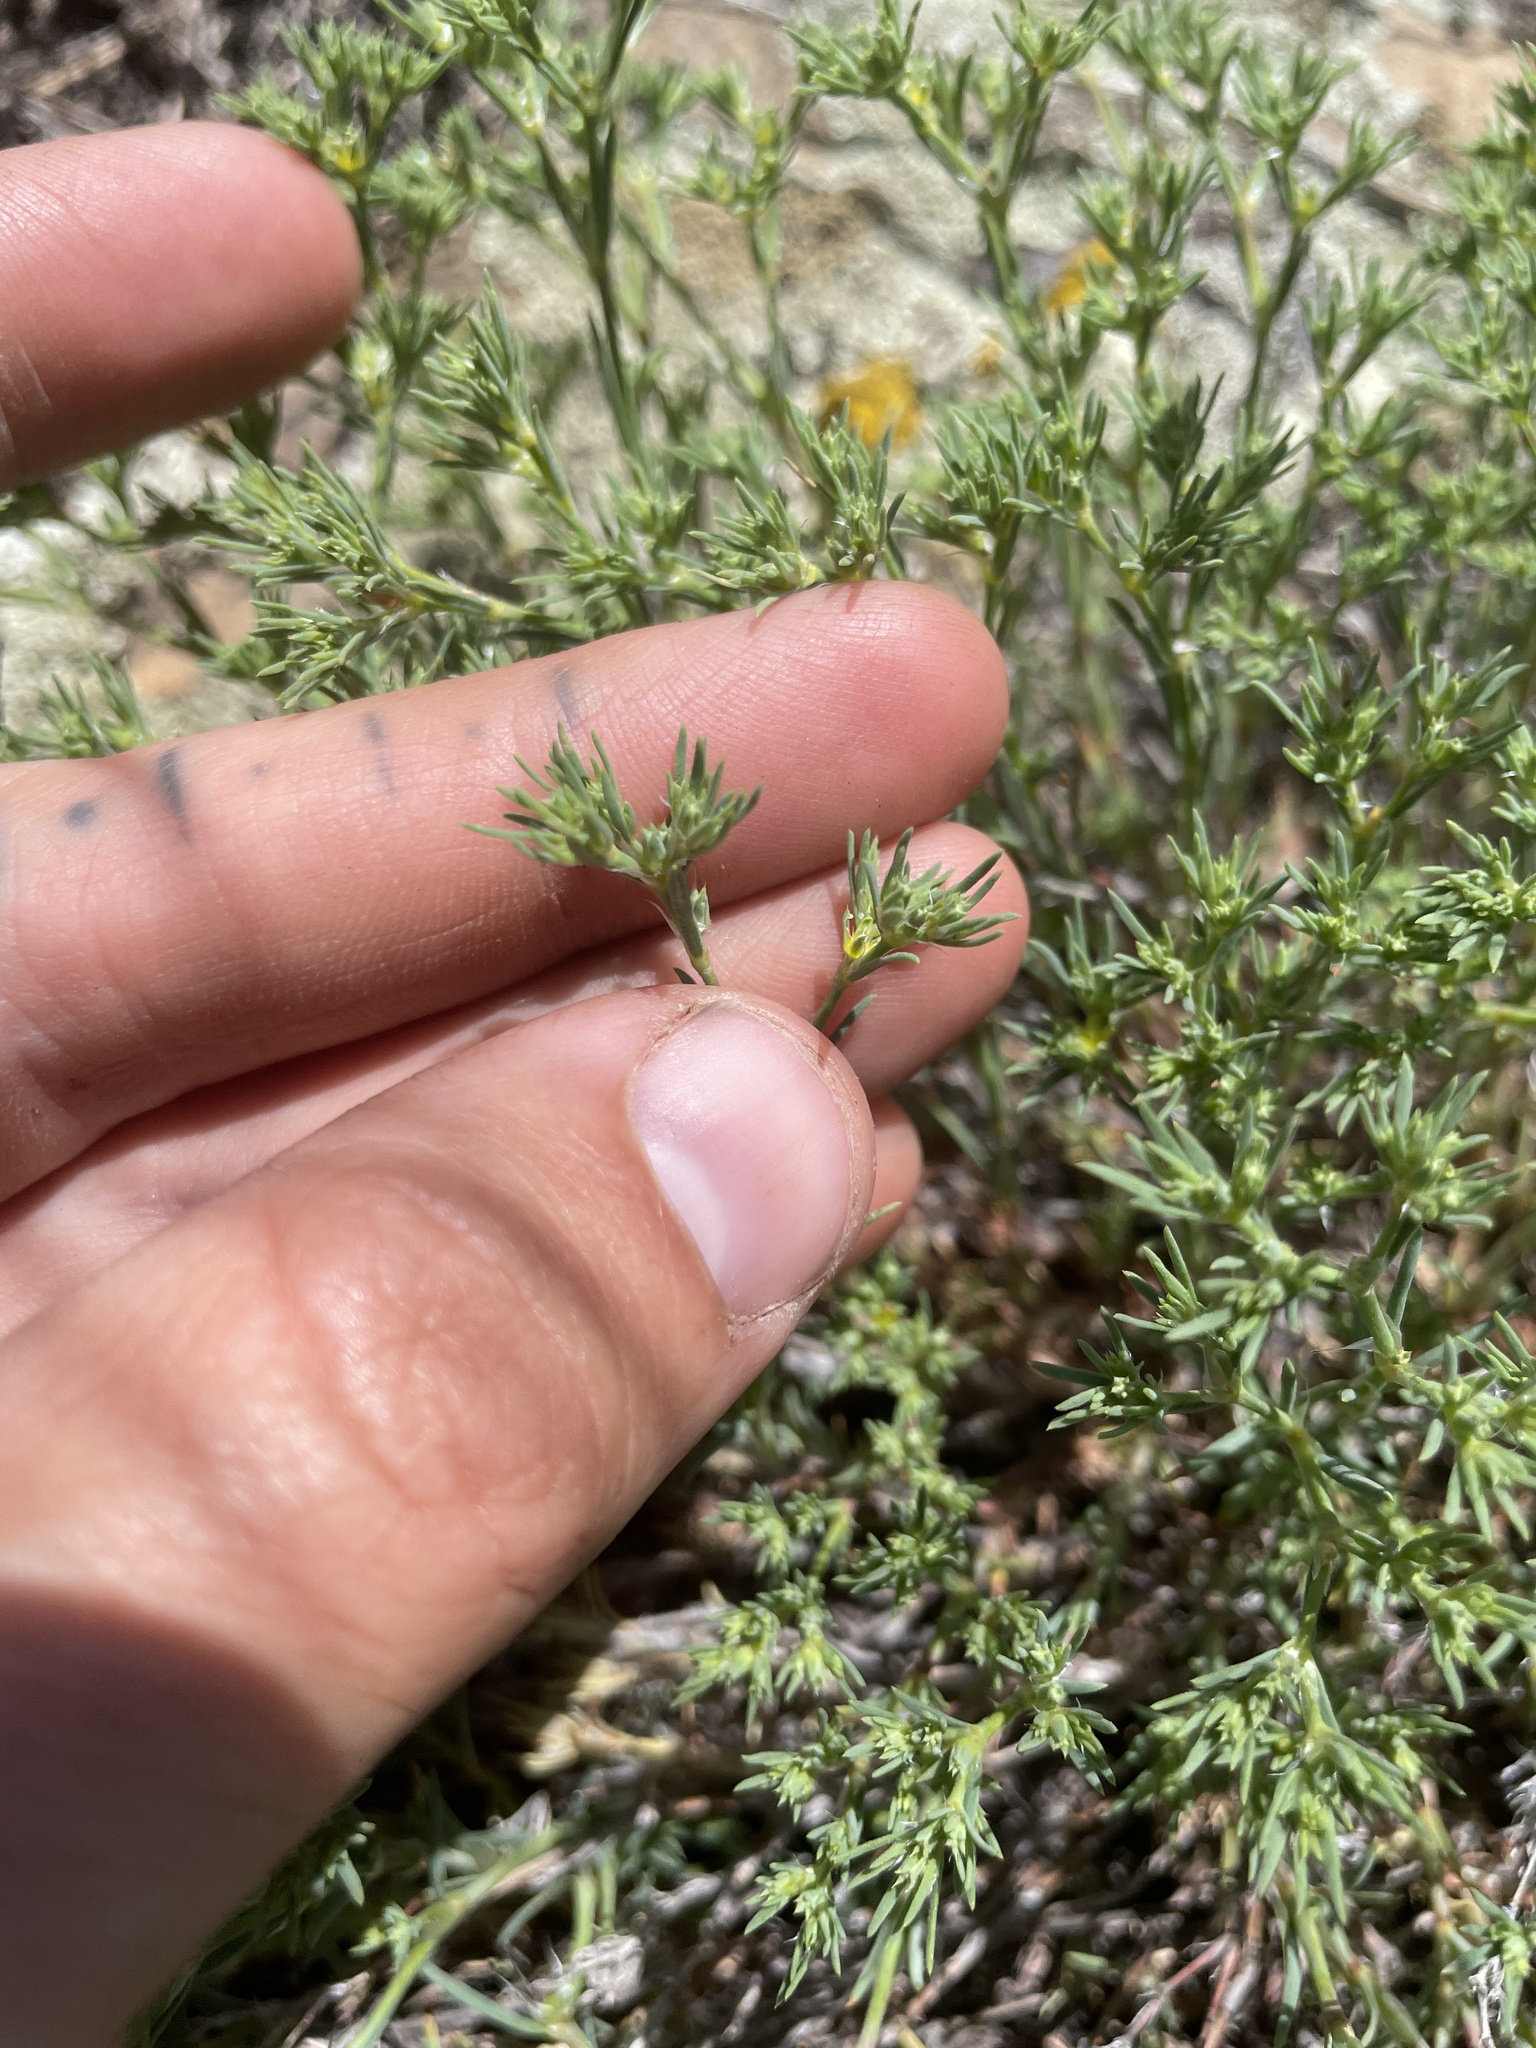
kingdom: Plantae
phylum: Tracheophyta
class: Magnoliopsida
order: Caryophyllales
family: Caryophyllaceae
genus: Paronychia
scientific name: Paronychia depressa
